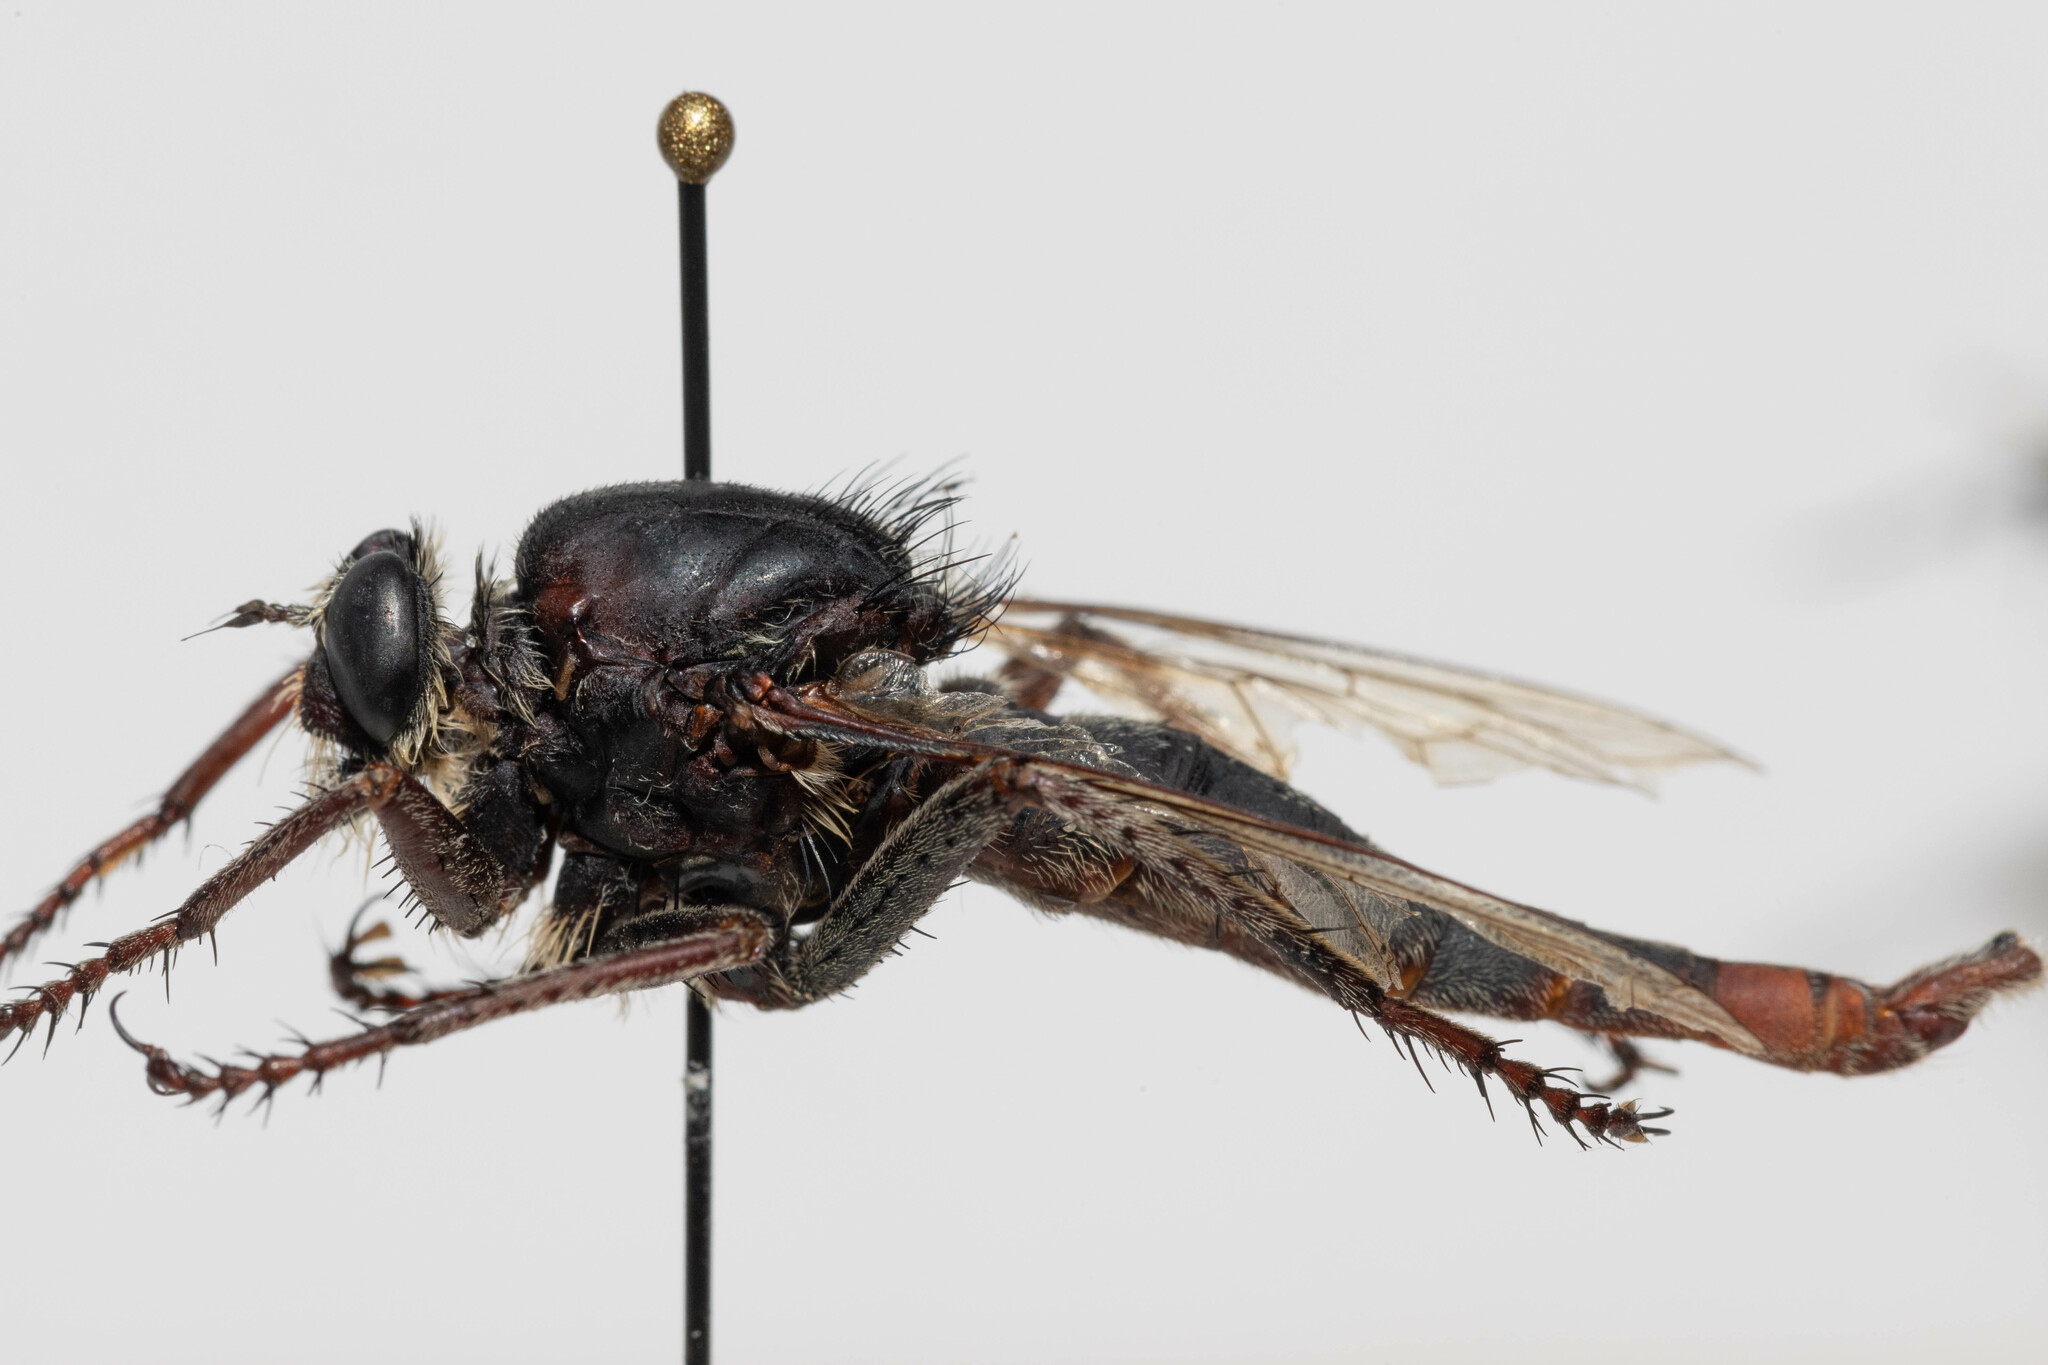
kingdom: Animalia
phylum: Arthropoda
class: Insecta
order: Diptera
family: Asilidae
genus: Proctacanthus
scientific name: Proctacanthus milbertii
